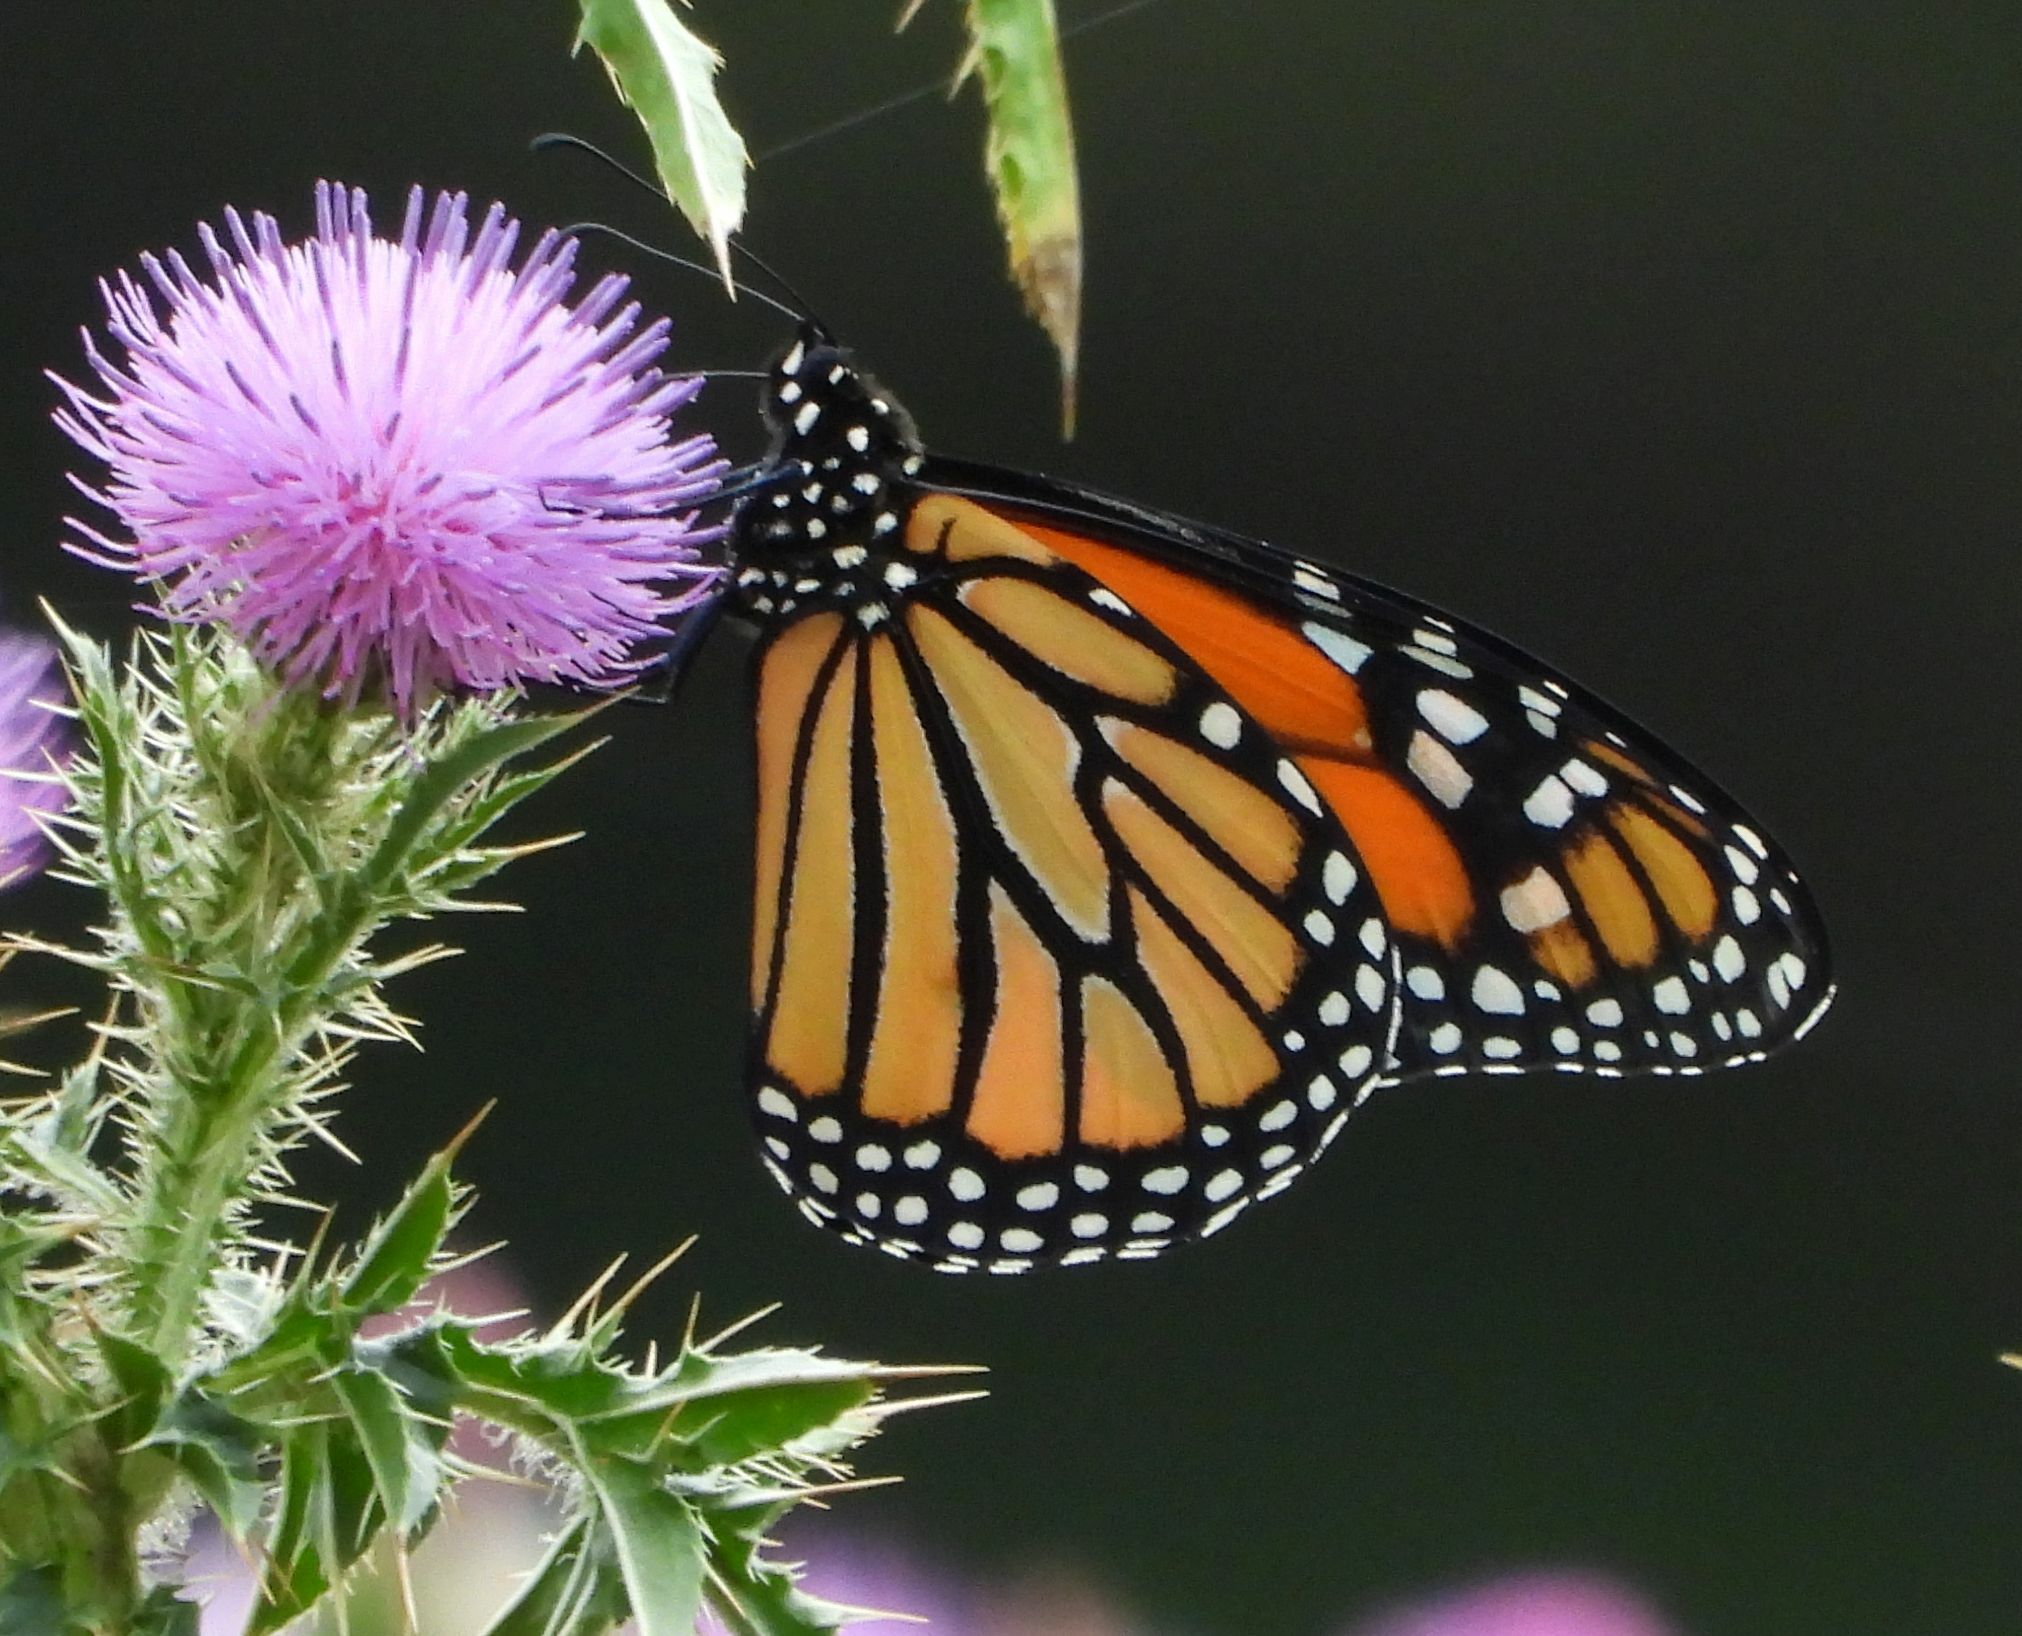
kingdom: Animalia
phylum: Arthropoda
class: Insecta
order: Lepidoptera
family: Nymphalidae
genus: Danaus
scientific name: Danaus plexippus
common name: Monarch
